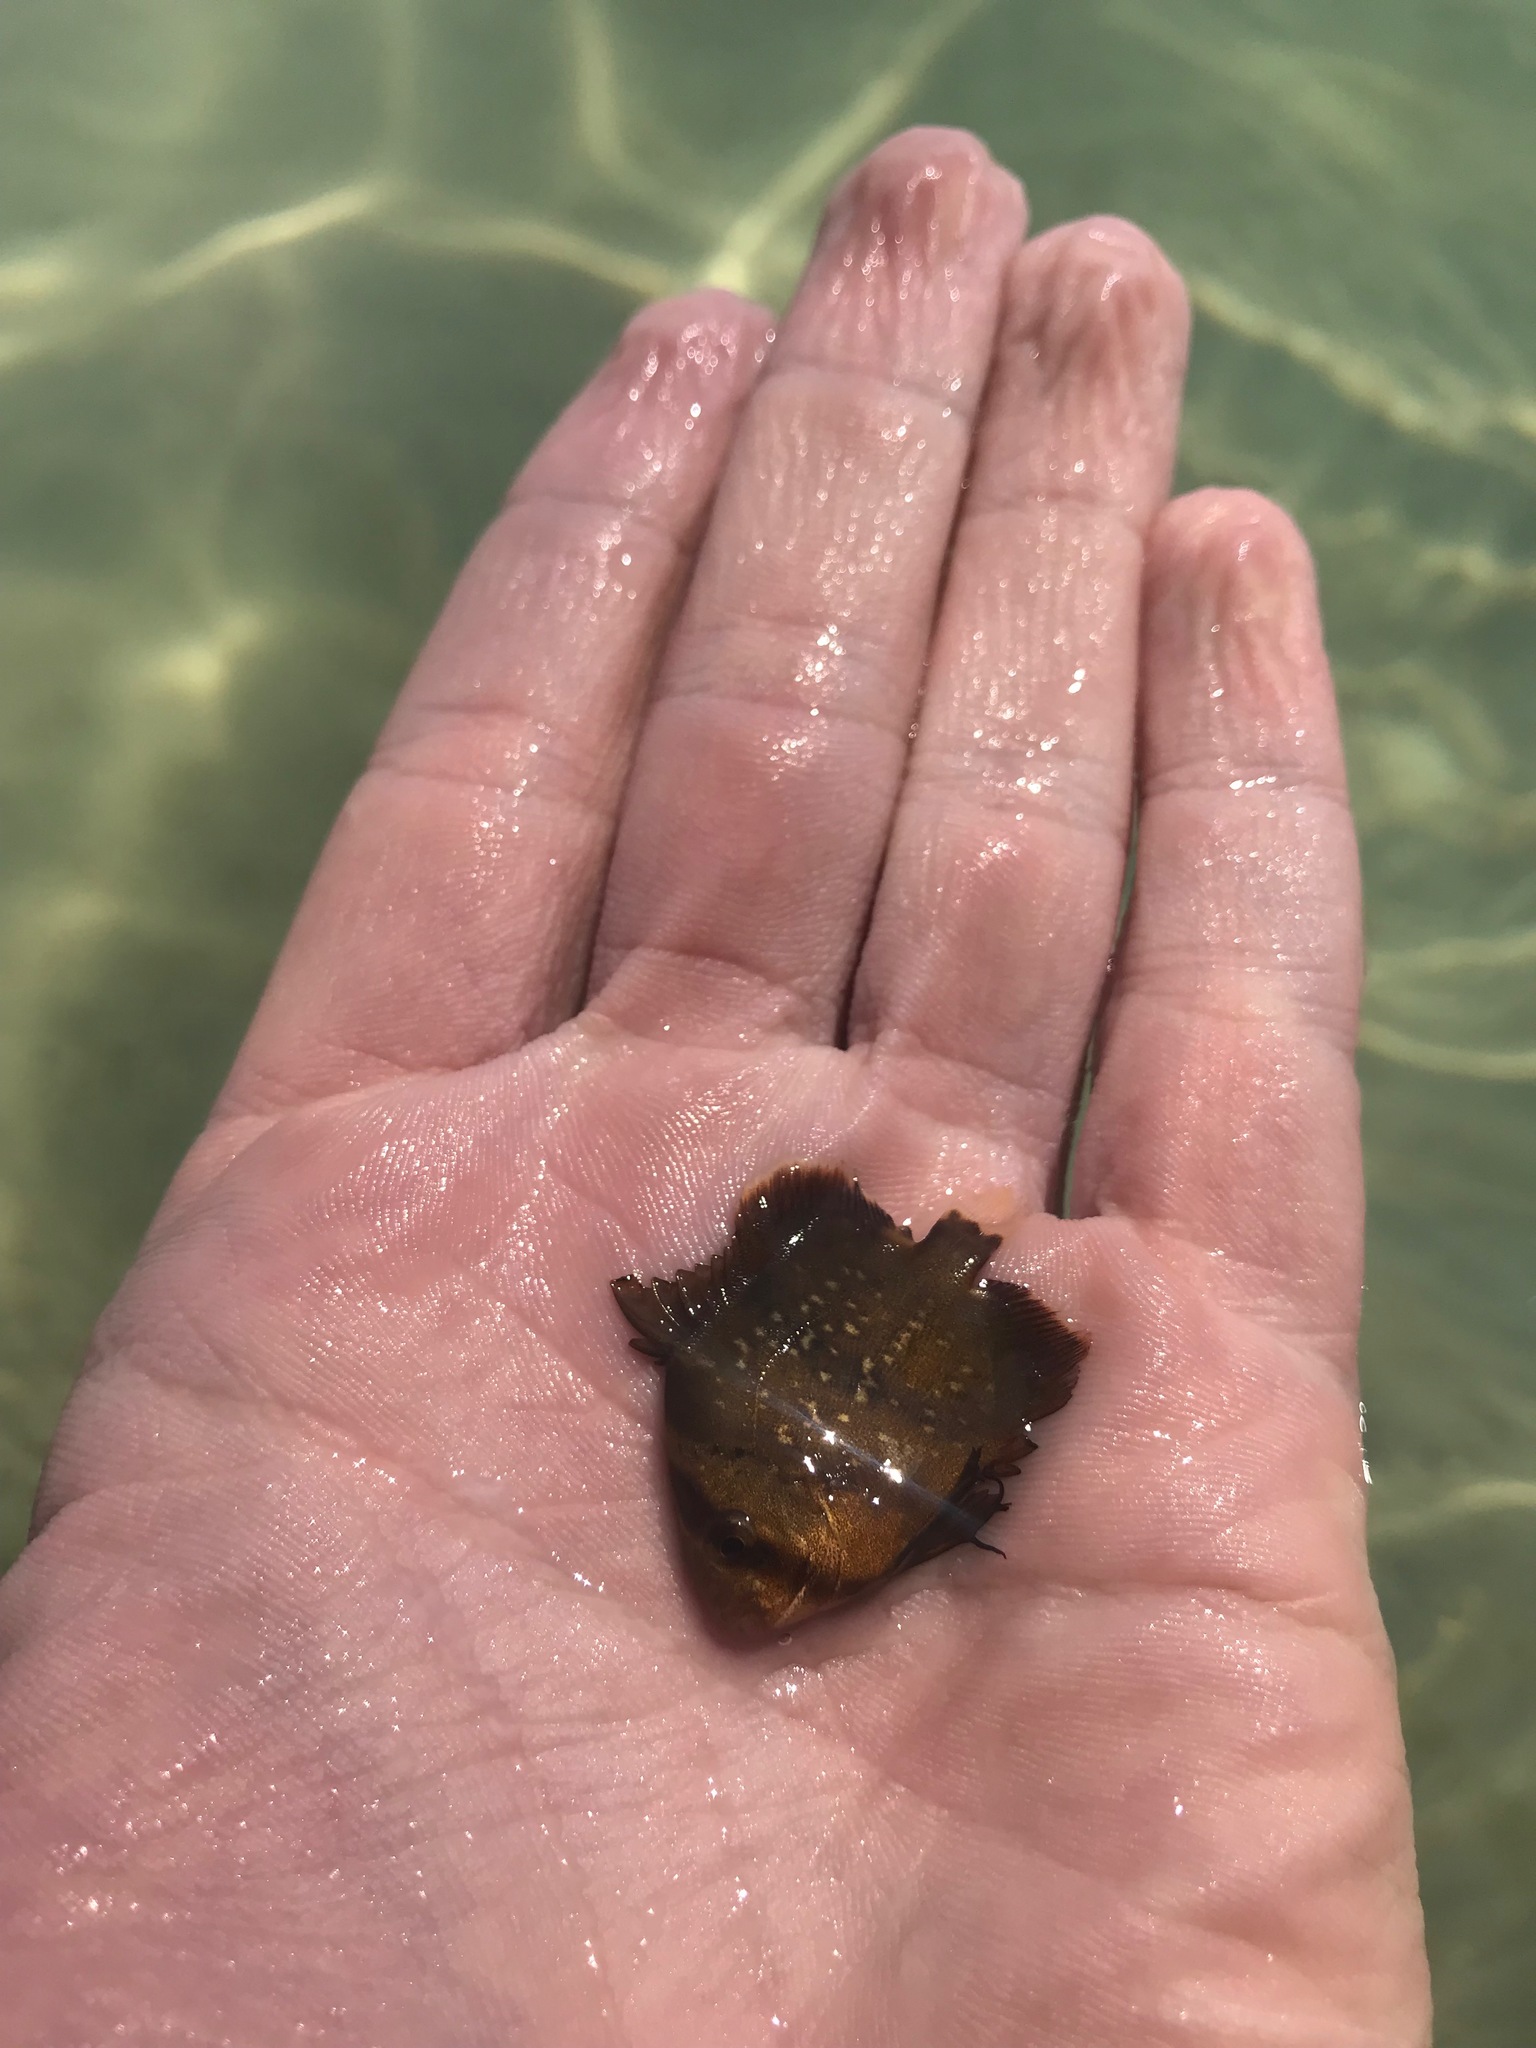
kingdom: Animalia
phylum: Chordata
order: Perciformes
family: Ephippidae
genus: Chaetodipterus
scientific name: Chaetodipterus faber
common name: Ocean cobbler
